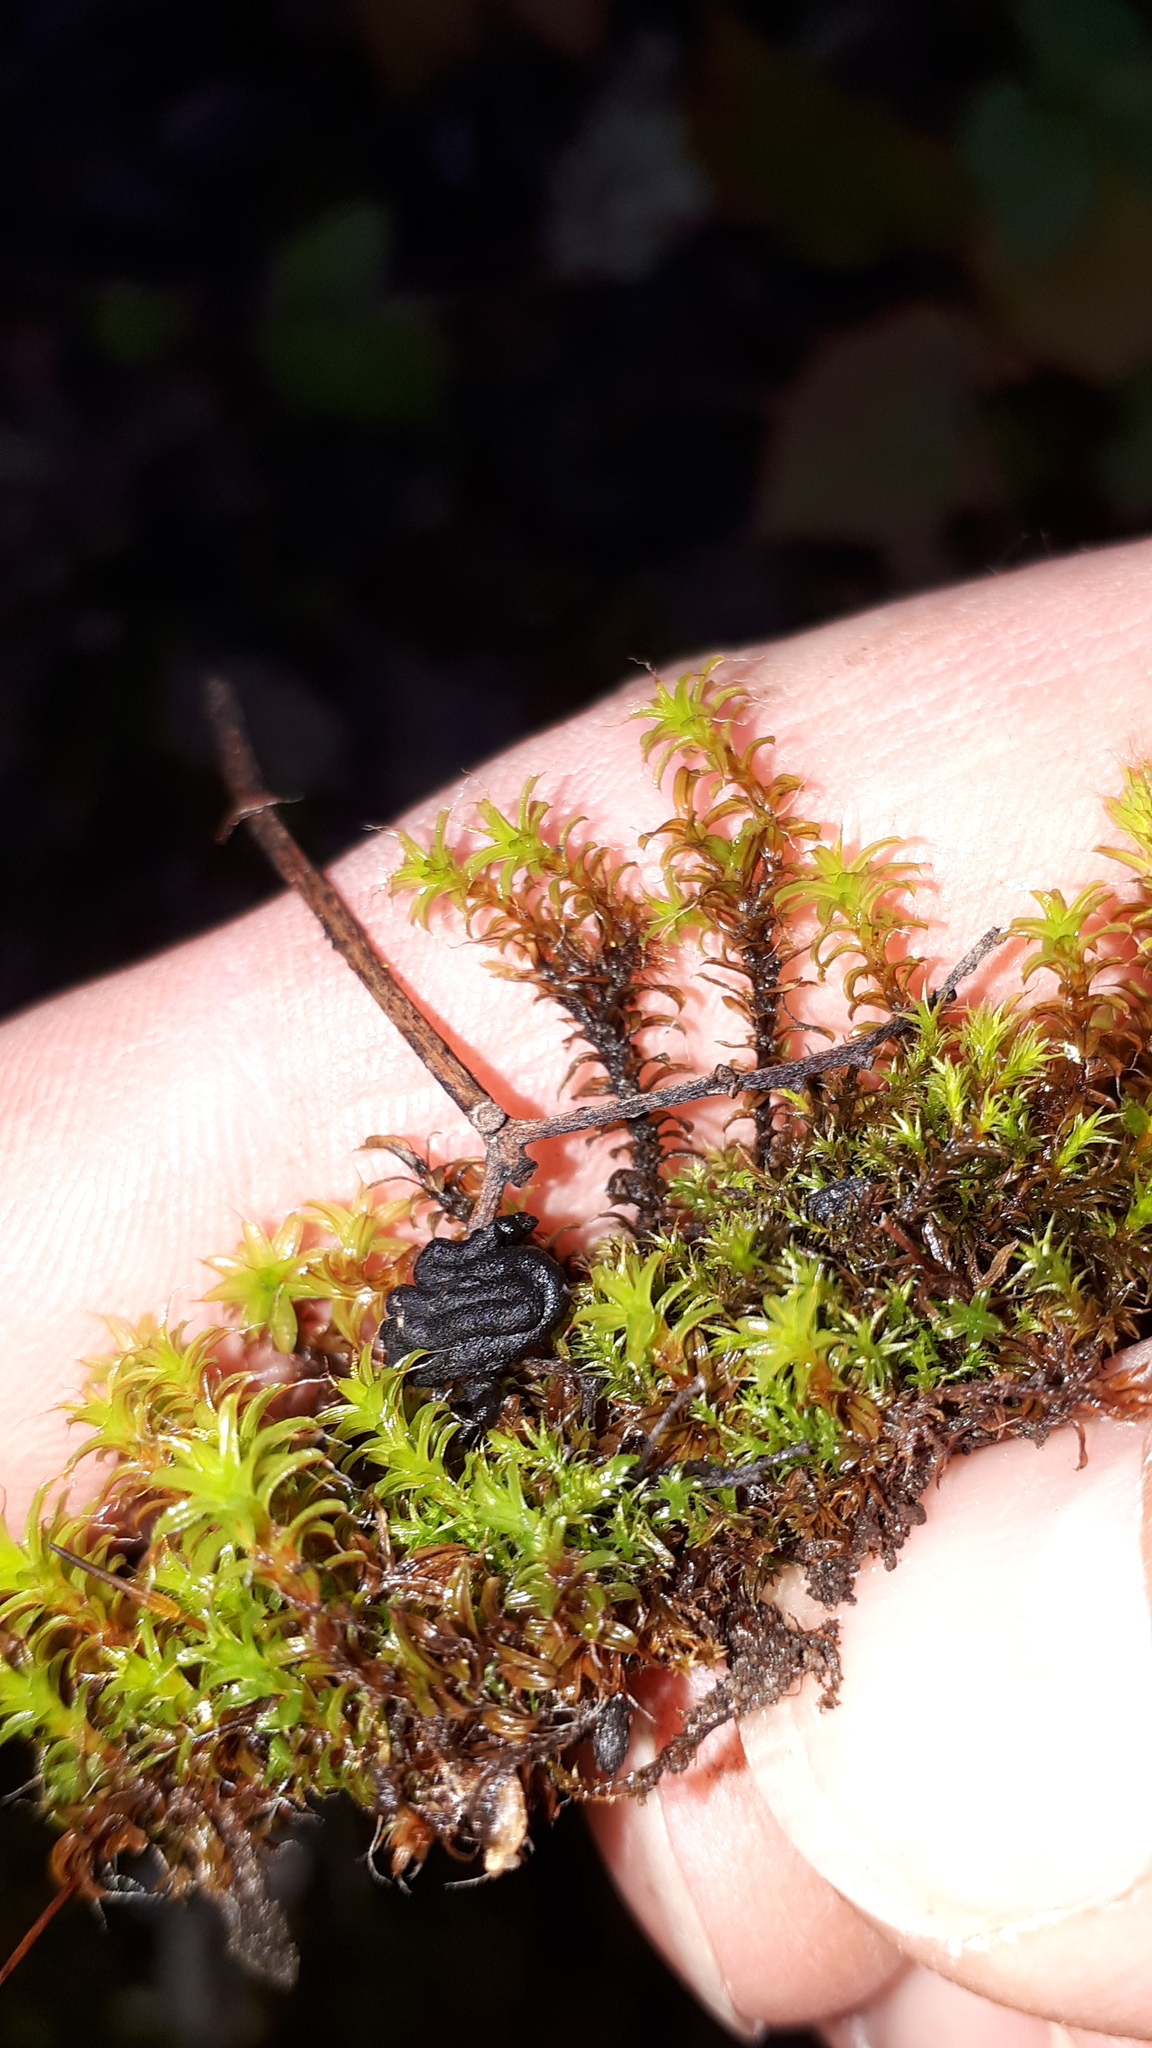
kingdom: Plantae
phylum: Bryophyta
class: Bryopsida
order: Pottiales
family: Pottiaceae
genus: Syntrichia
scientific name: Syntrichia ruralis
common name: Sidewalk screw moss
